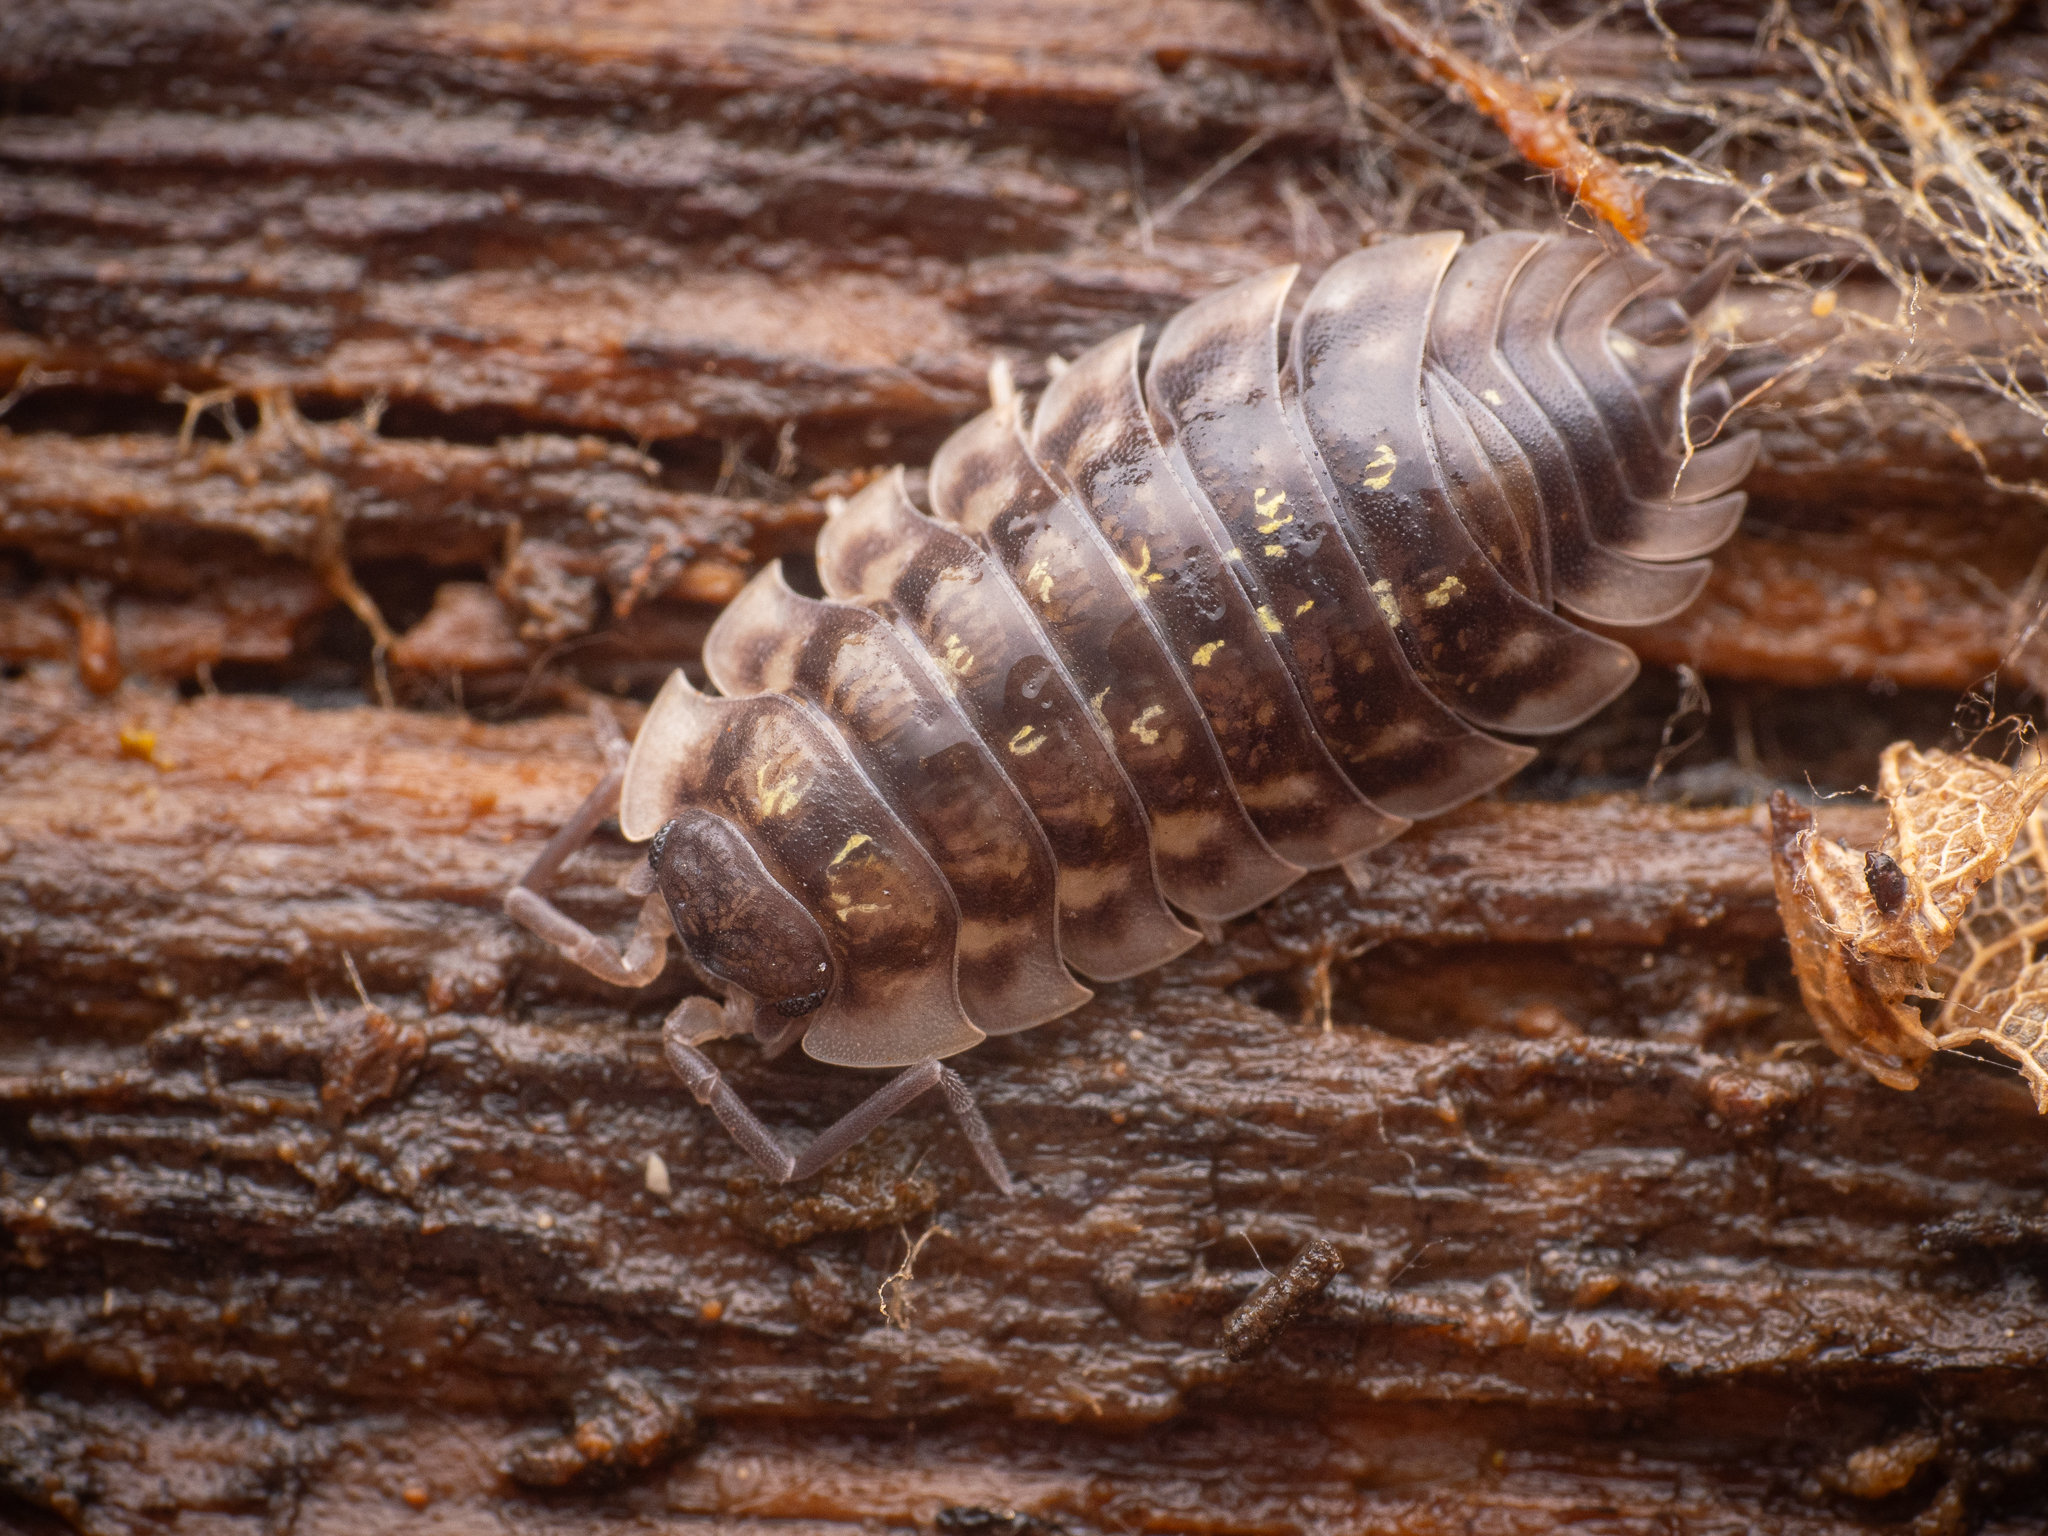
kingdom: Animalia
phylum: Arthropoda
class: Malacostraca
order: Isopoda
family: Oniscidae
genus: Oniscus
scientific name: Oniscus asellus
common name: Common shiny woodlouse
